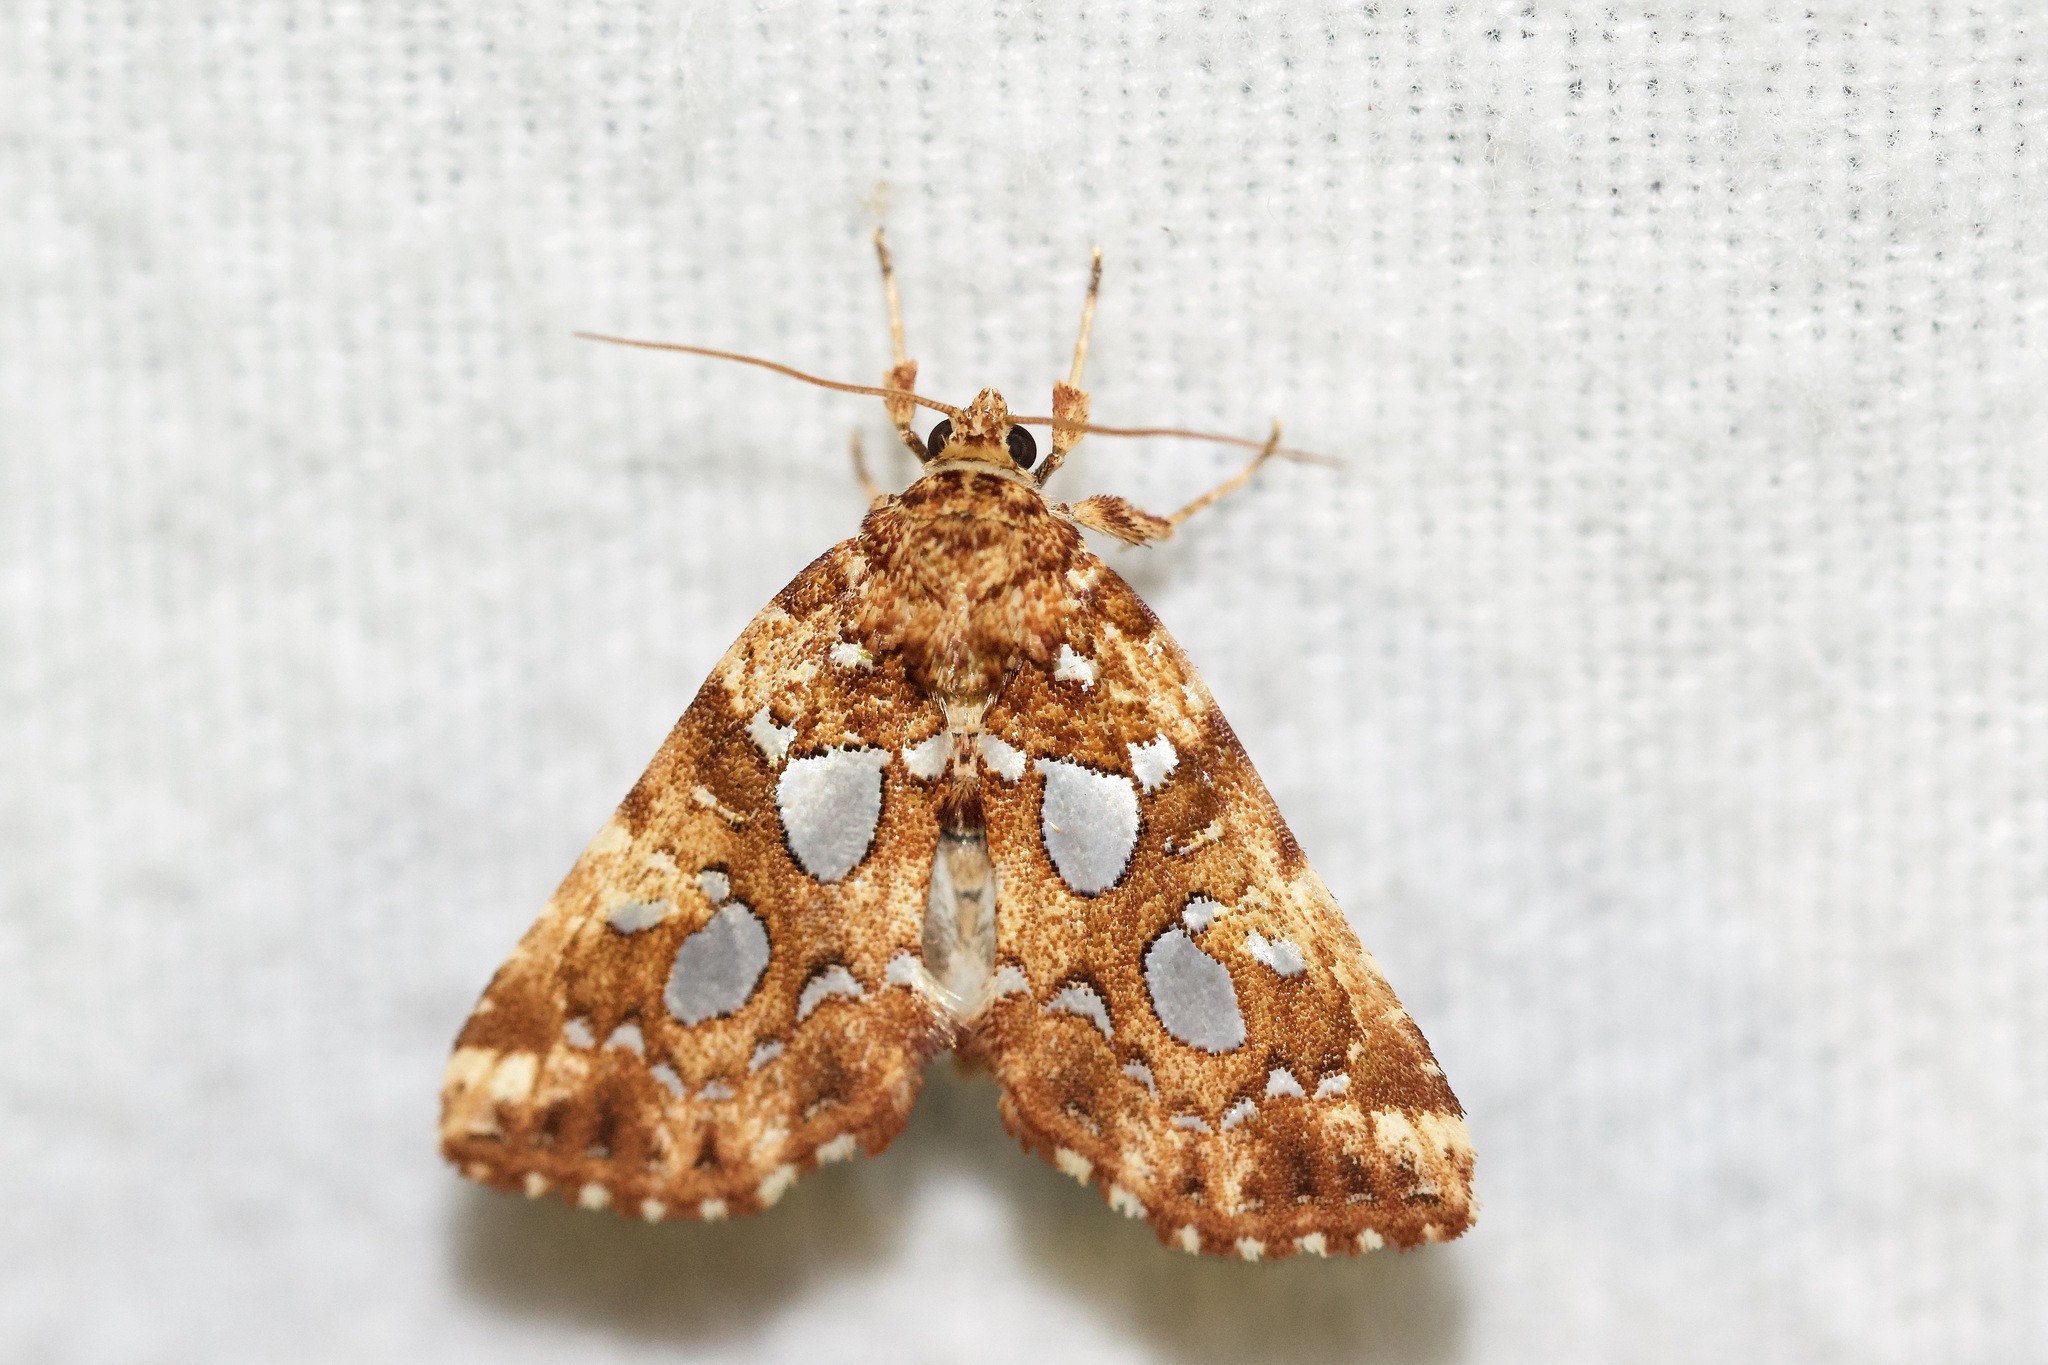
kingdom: Animalia
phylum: Arthropoda
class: Insecta
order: Lepidoptera
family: Noctuidae
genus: Callopistria
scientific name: Callopistria cordata
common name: Silver-spotted fern moth
